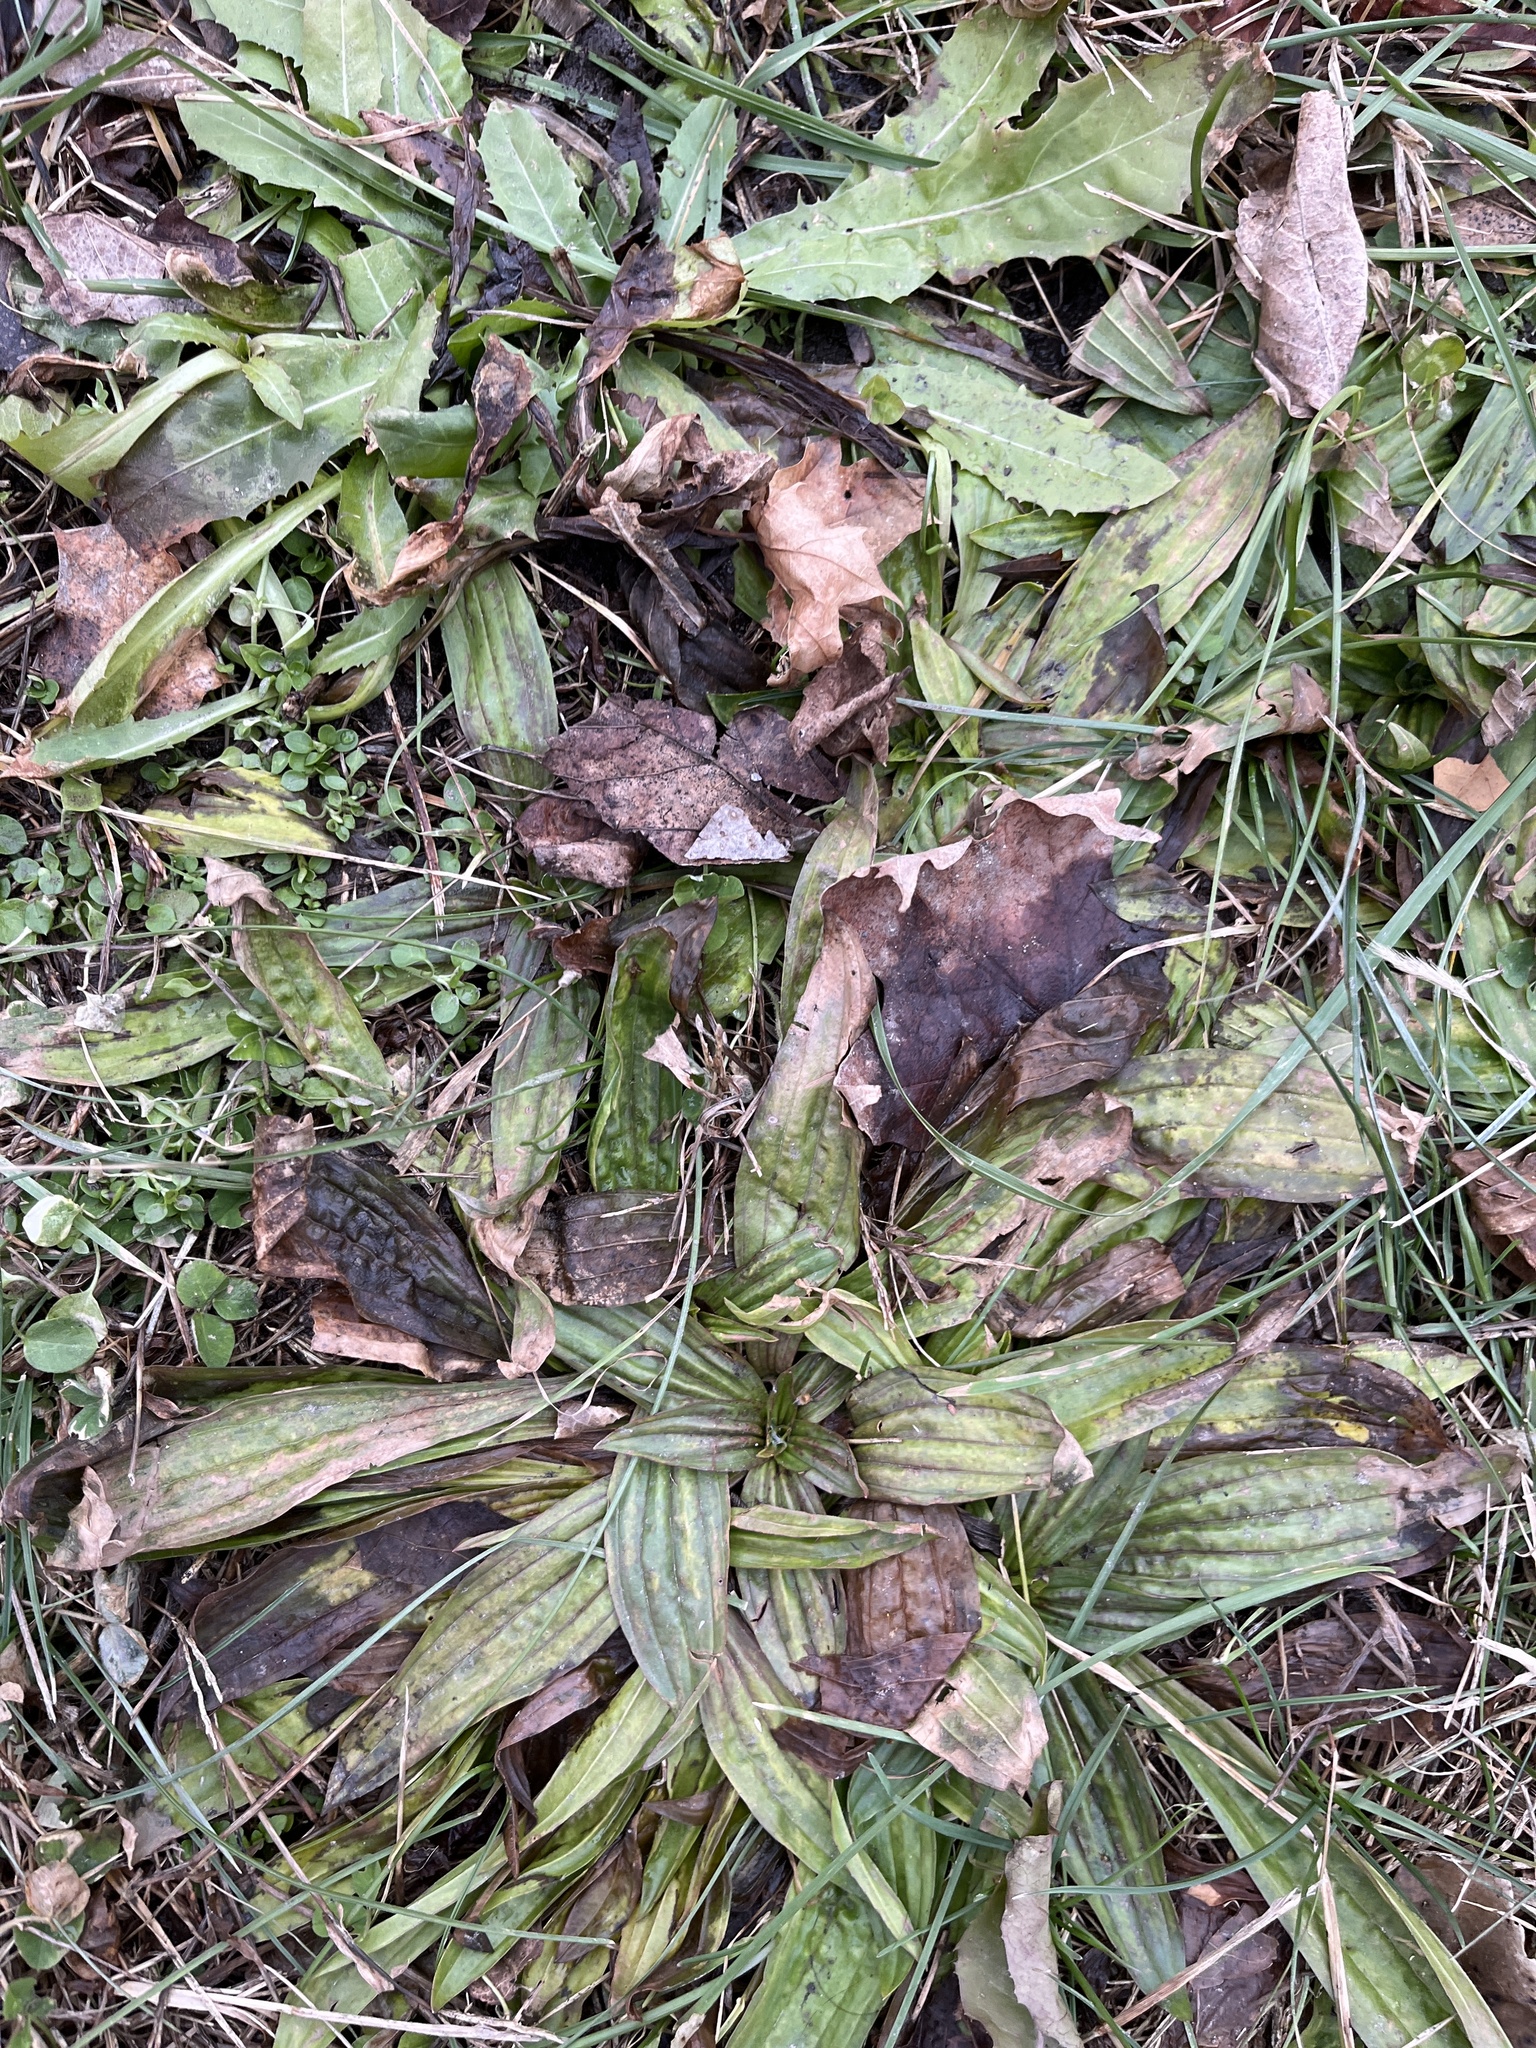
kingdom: Plantae
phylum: Tracheophyta
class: Magnoliopsida
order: Lamiales
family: Plantaginaceae
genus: Plantago
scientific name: Plantago lanceolata
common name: Ribwort plantain
